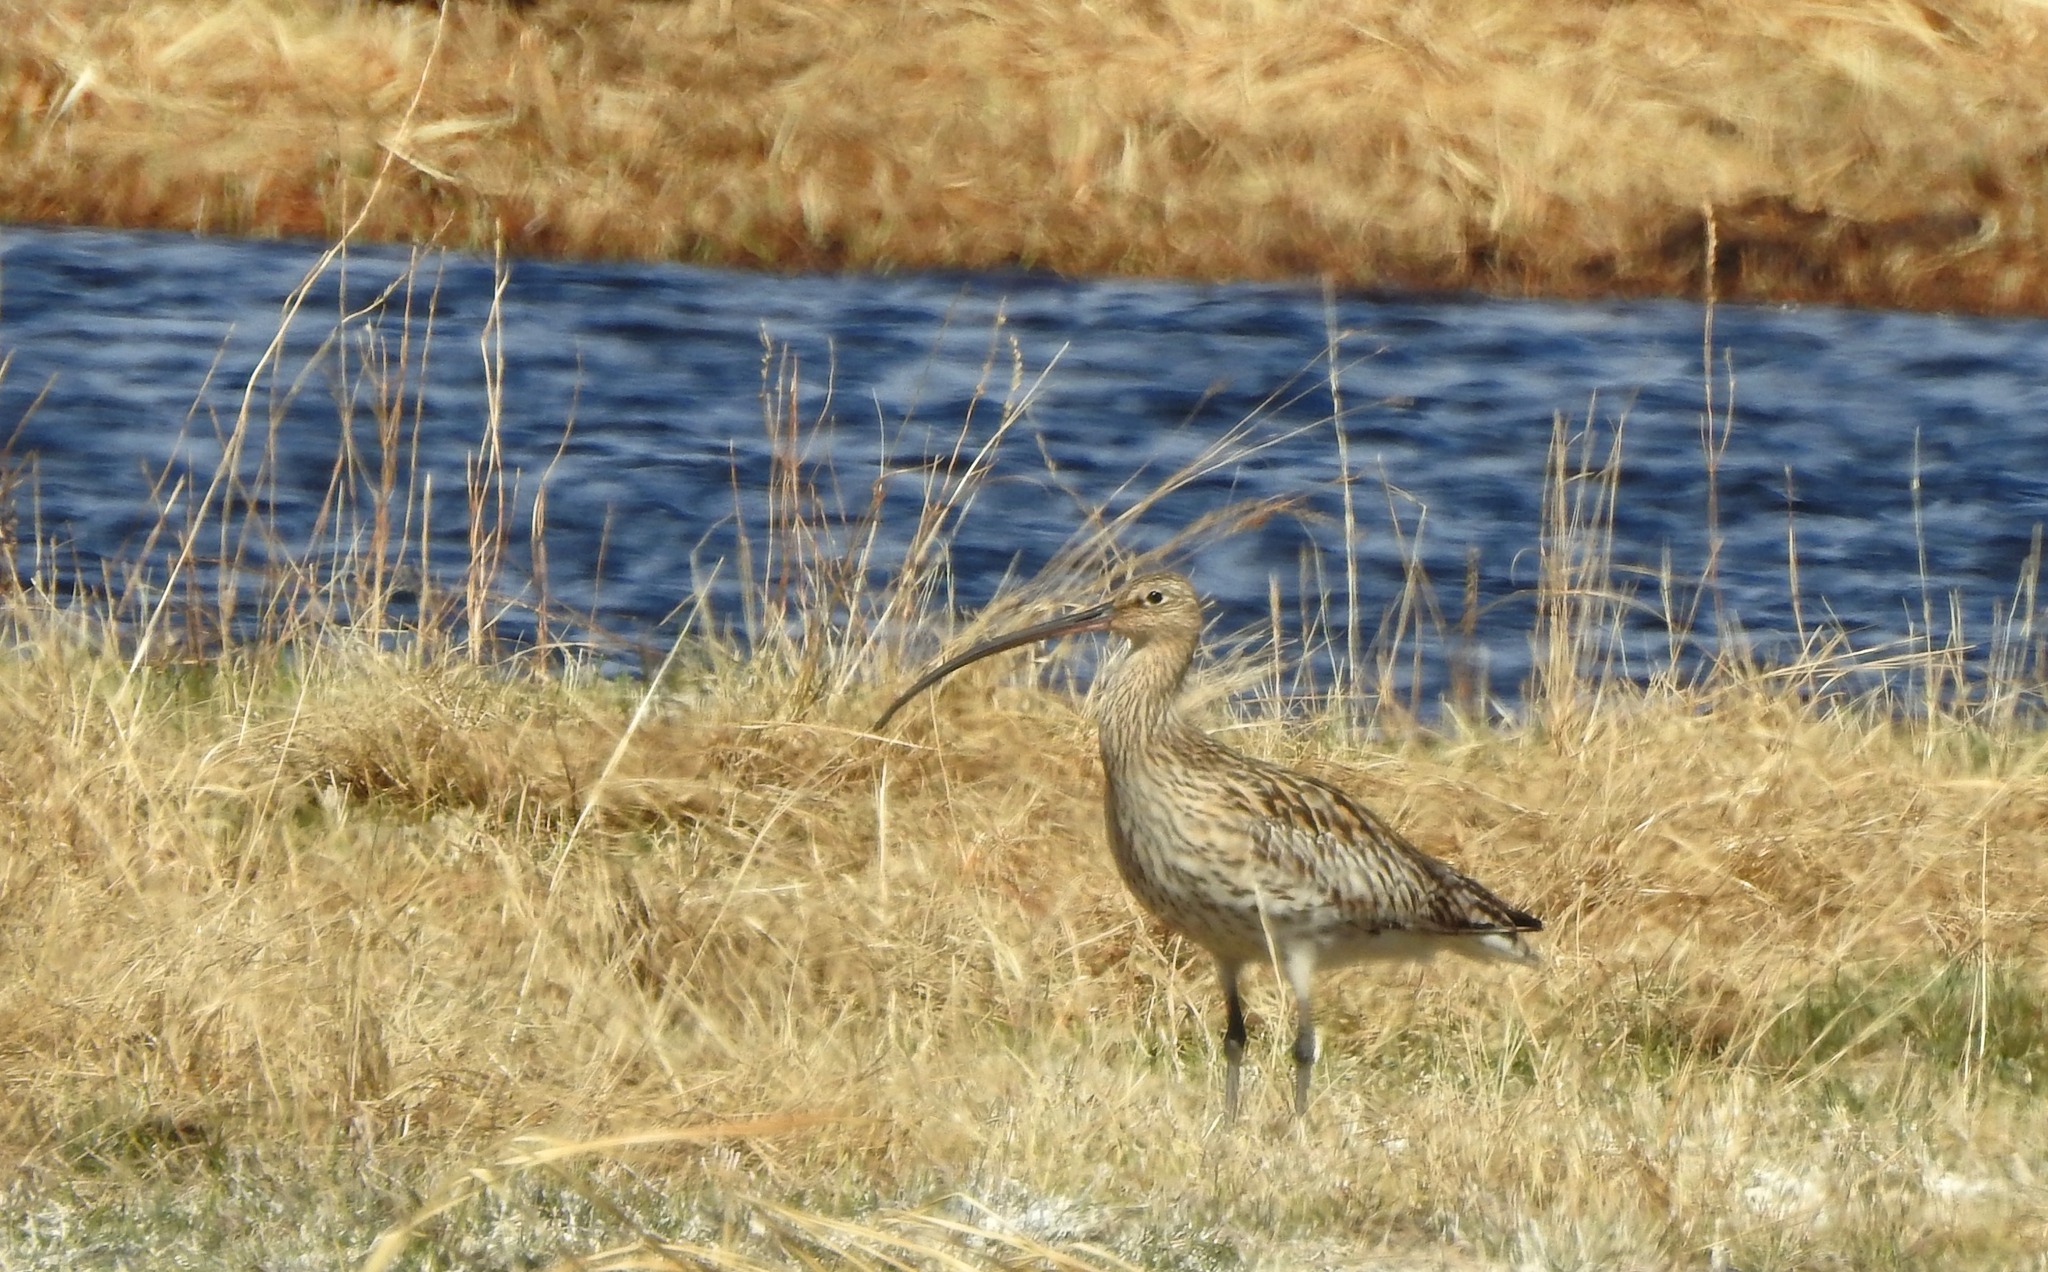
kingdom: Animalia
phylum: Chordata
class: Aves
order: Charadriiformes
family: Scolopacidae
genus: Numenius
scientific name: Numenius arquata
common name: Eurasian curlew
